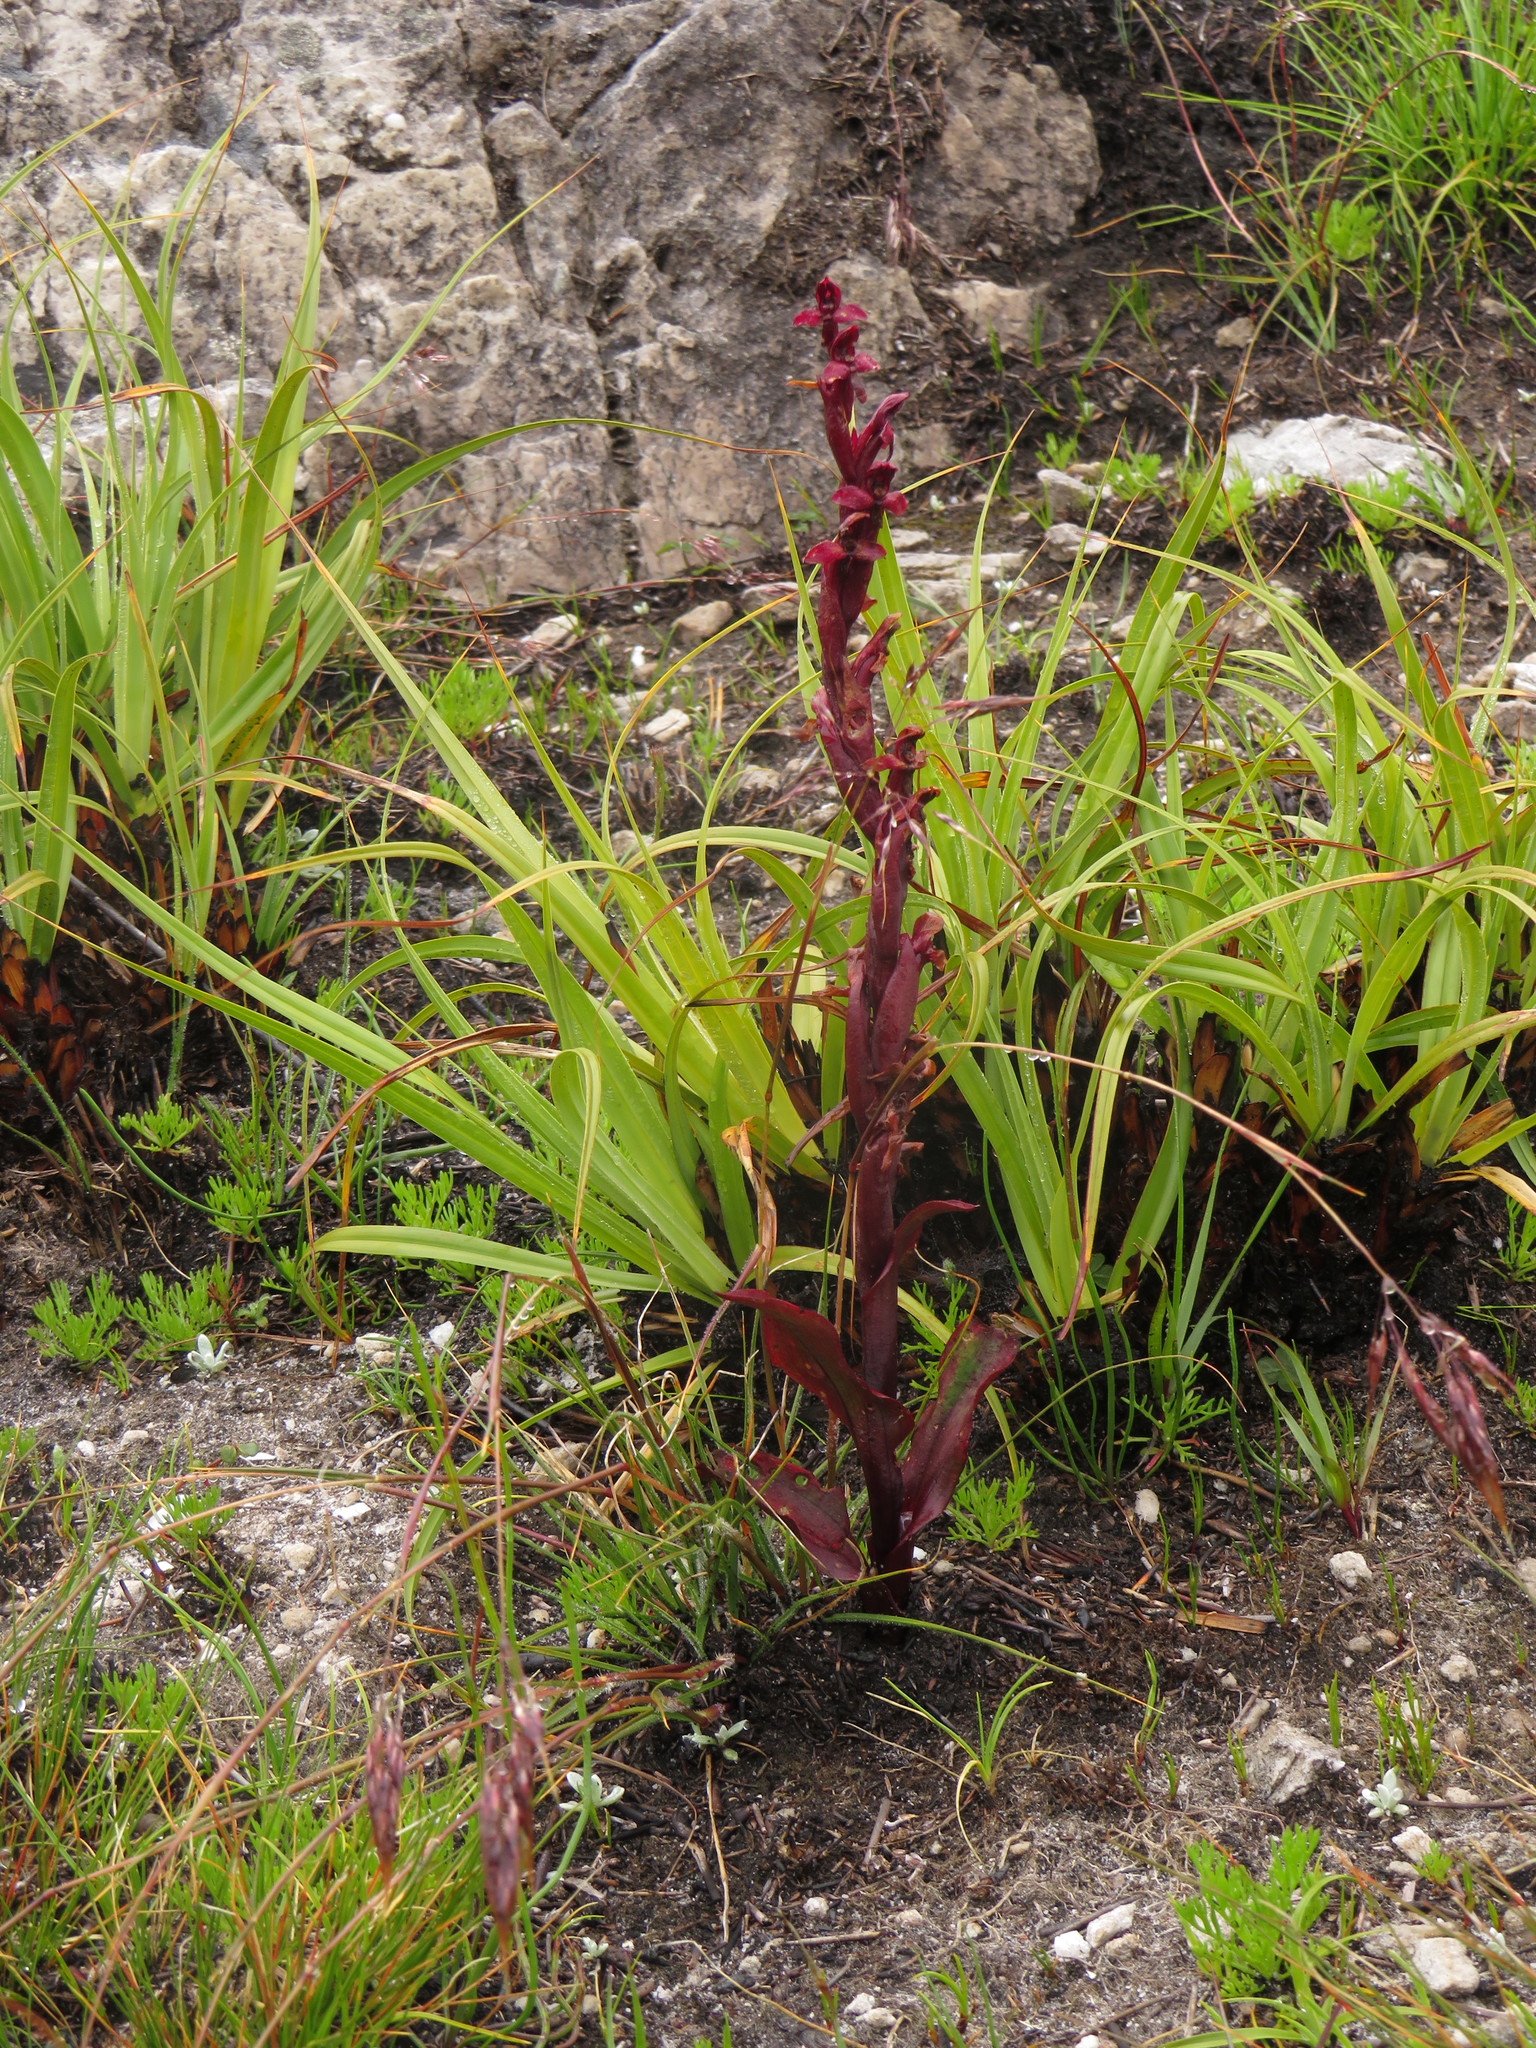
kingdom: Plantae
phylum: Tracheophyta
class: Liliopsida
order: Asparagales
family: Orchidaceae
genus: Disa
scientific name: Disa ophrydea
